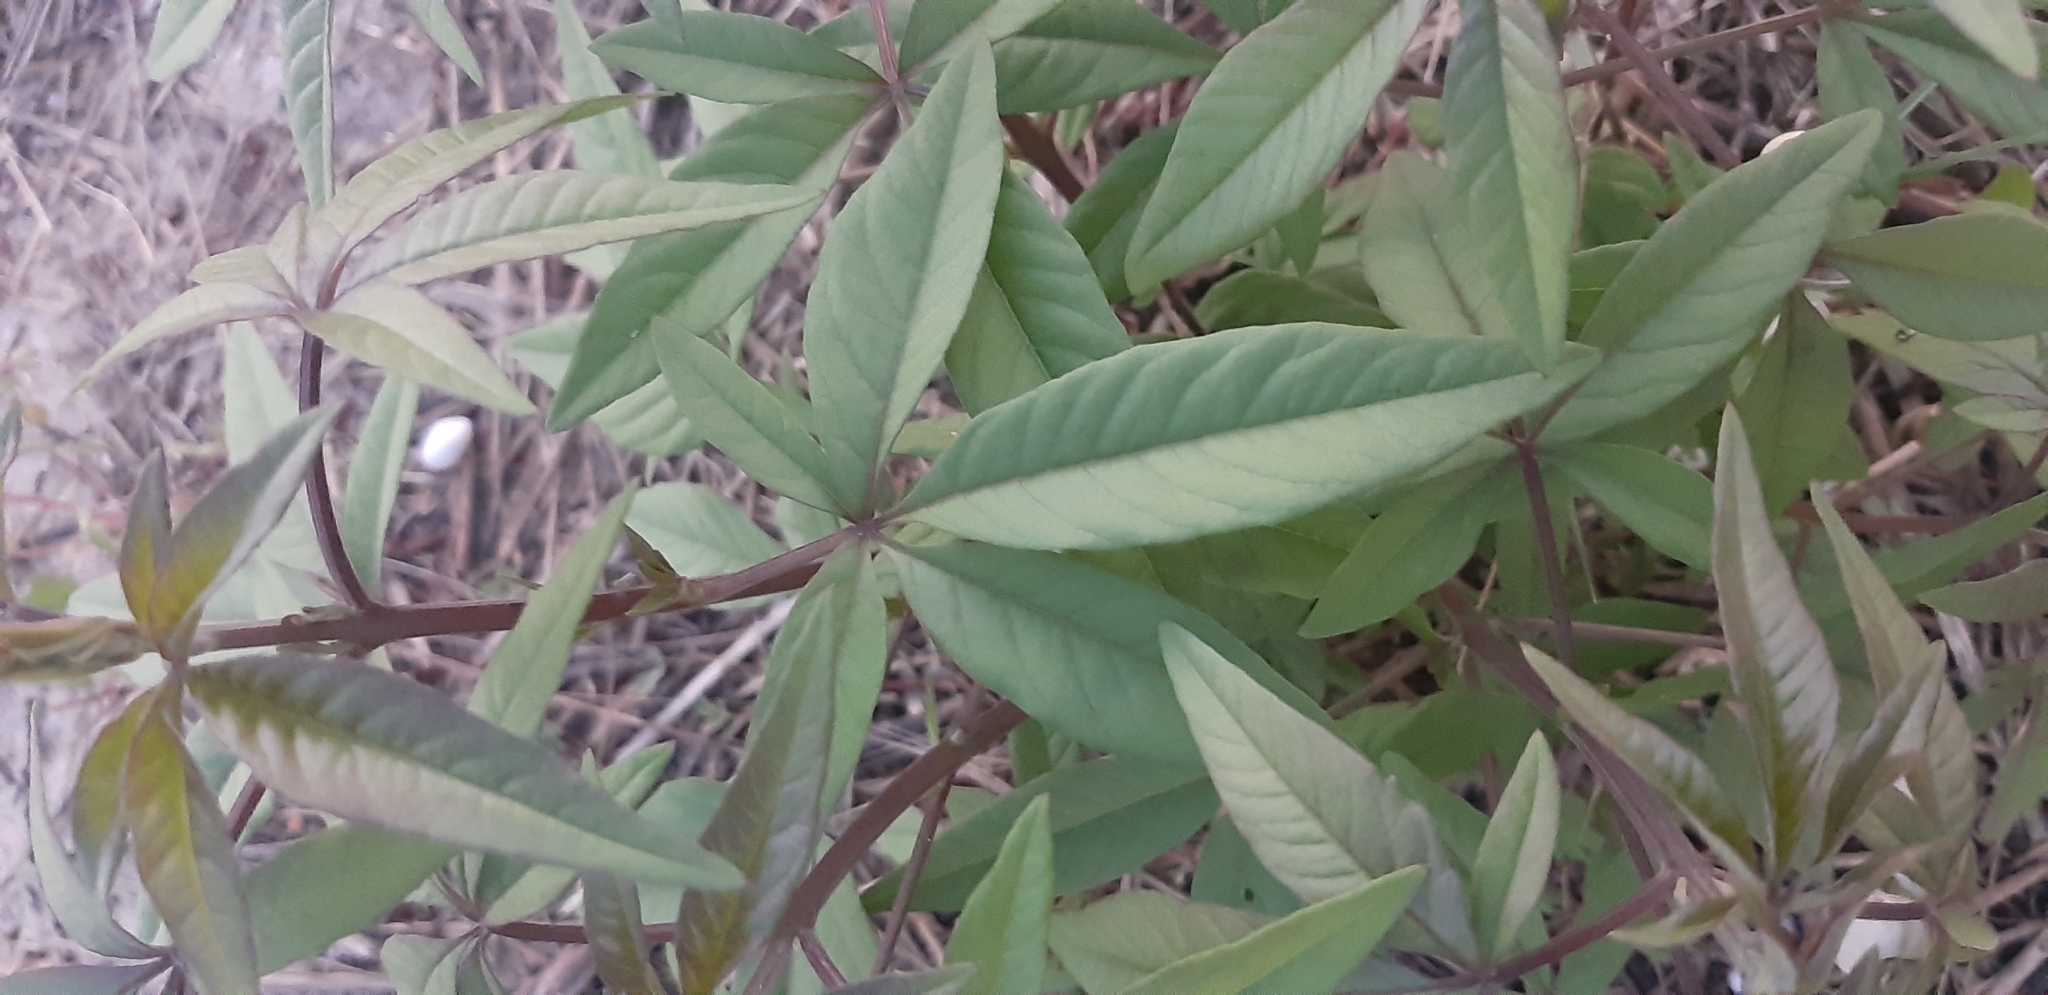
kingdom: Plantae
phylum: Tracheophyta
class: Magnoliopsida
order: Lamiales
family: Lamiaceae
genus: Vitex
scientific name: Vitex agnus-castus
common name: Chasteberry
